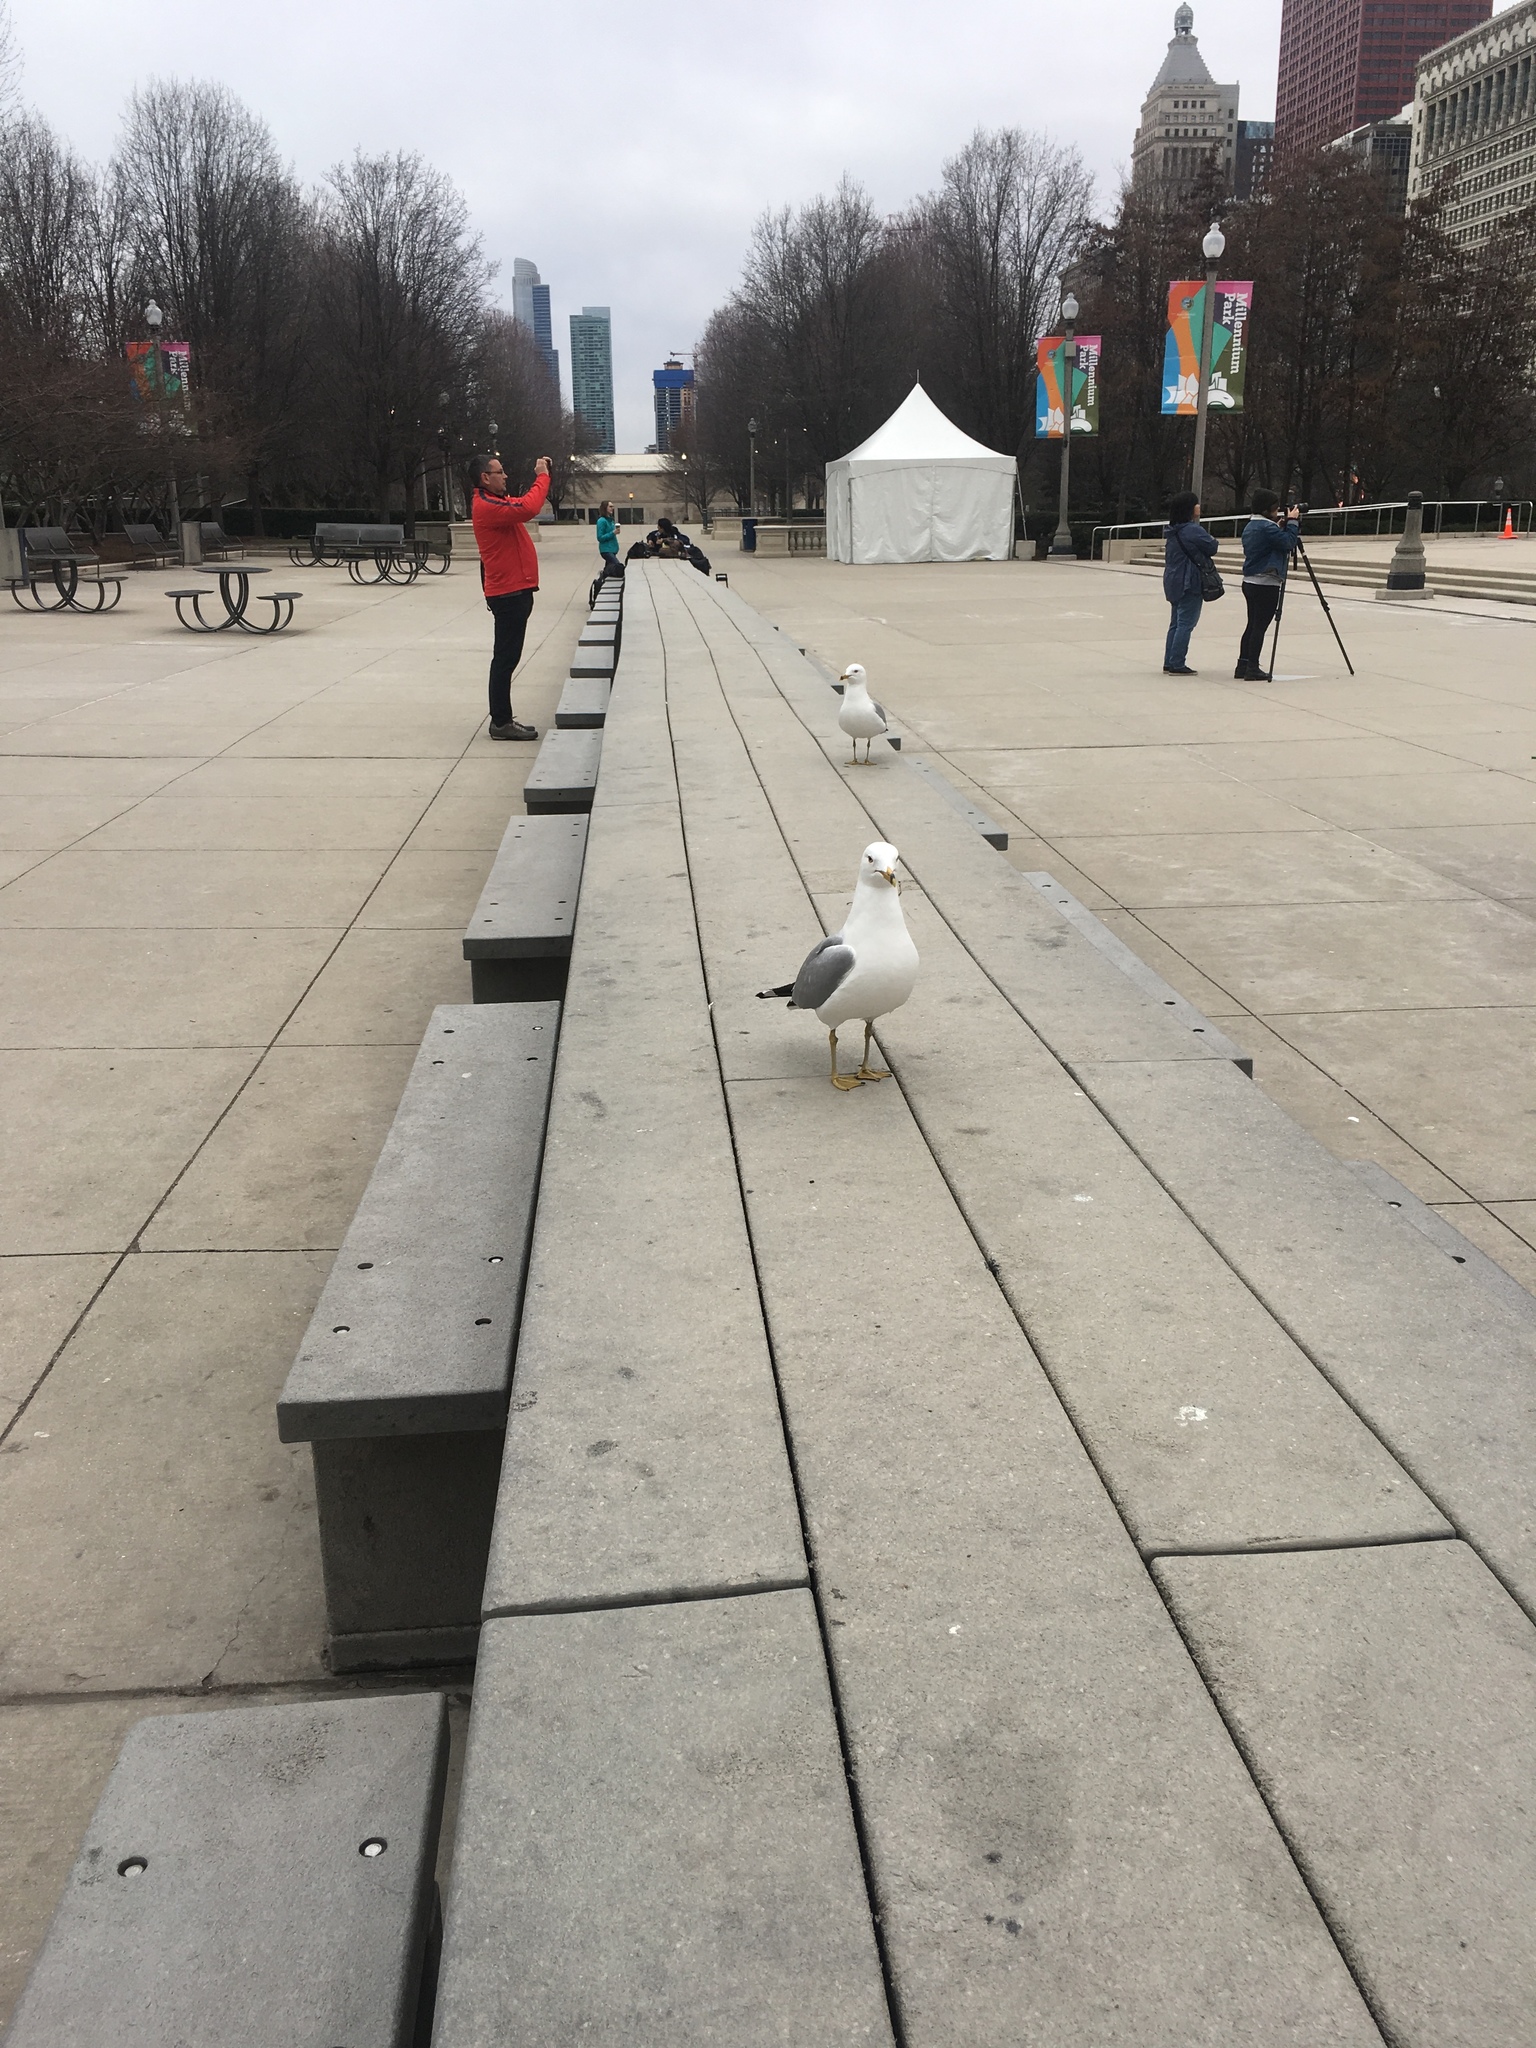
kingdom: Animalia
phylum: Chordata
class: Aves
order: Charadriiformes
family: Laridae
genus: Larus
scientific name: Larus delawarensis
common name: Ring-billed gull
